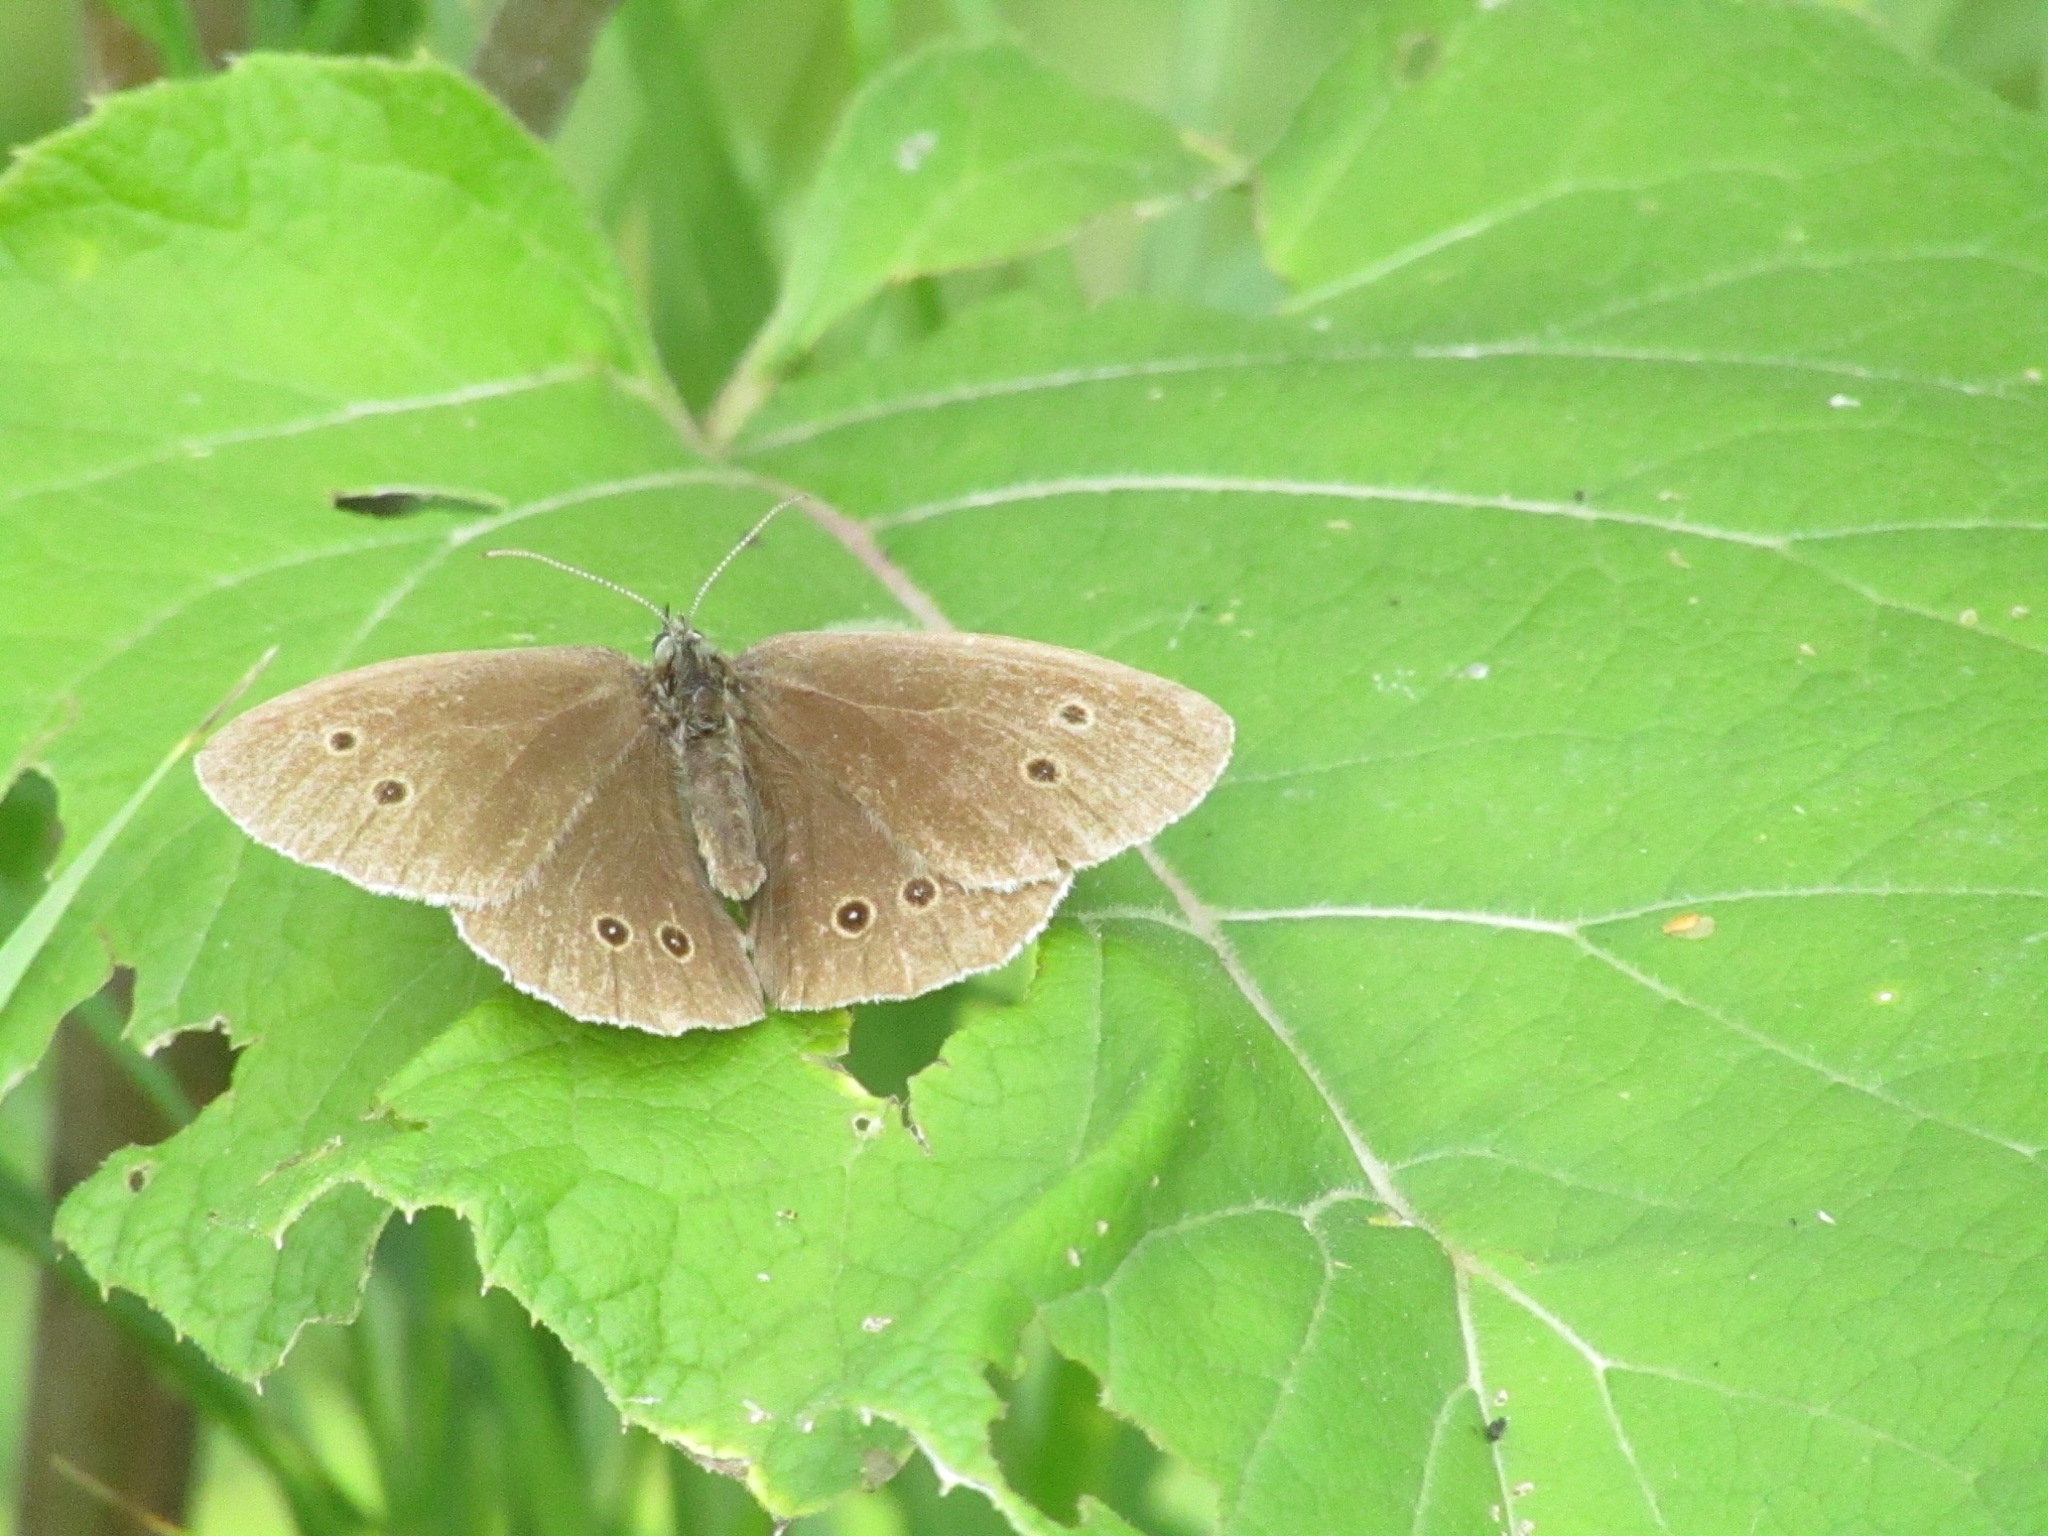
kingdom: Animalia
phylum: Arthropoda
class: Insecta
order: Lepidoptera
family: Nymphalidae
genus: Aphantopus
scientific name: Aphantopus hyperantus
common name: Ringlet
